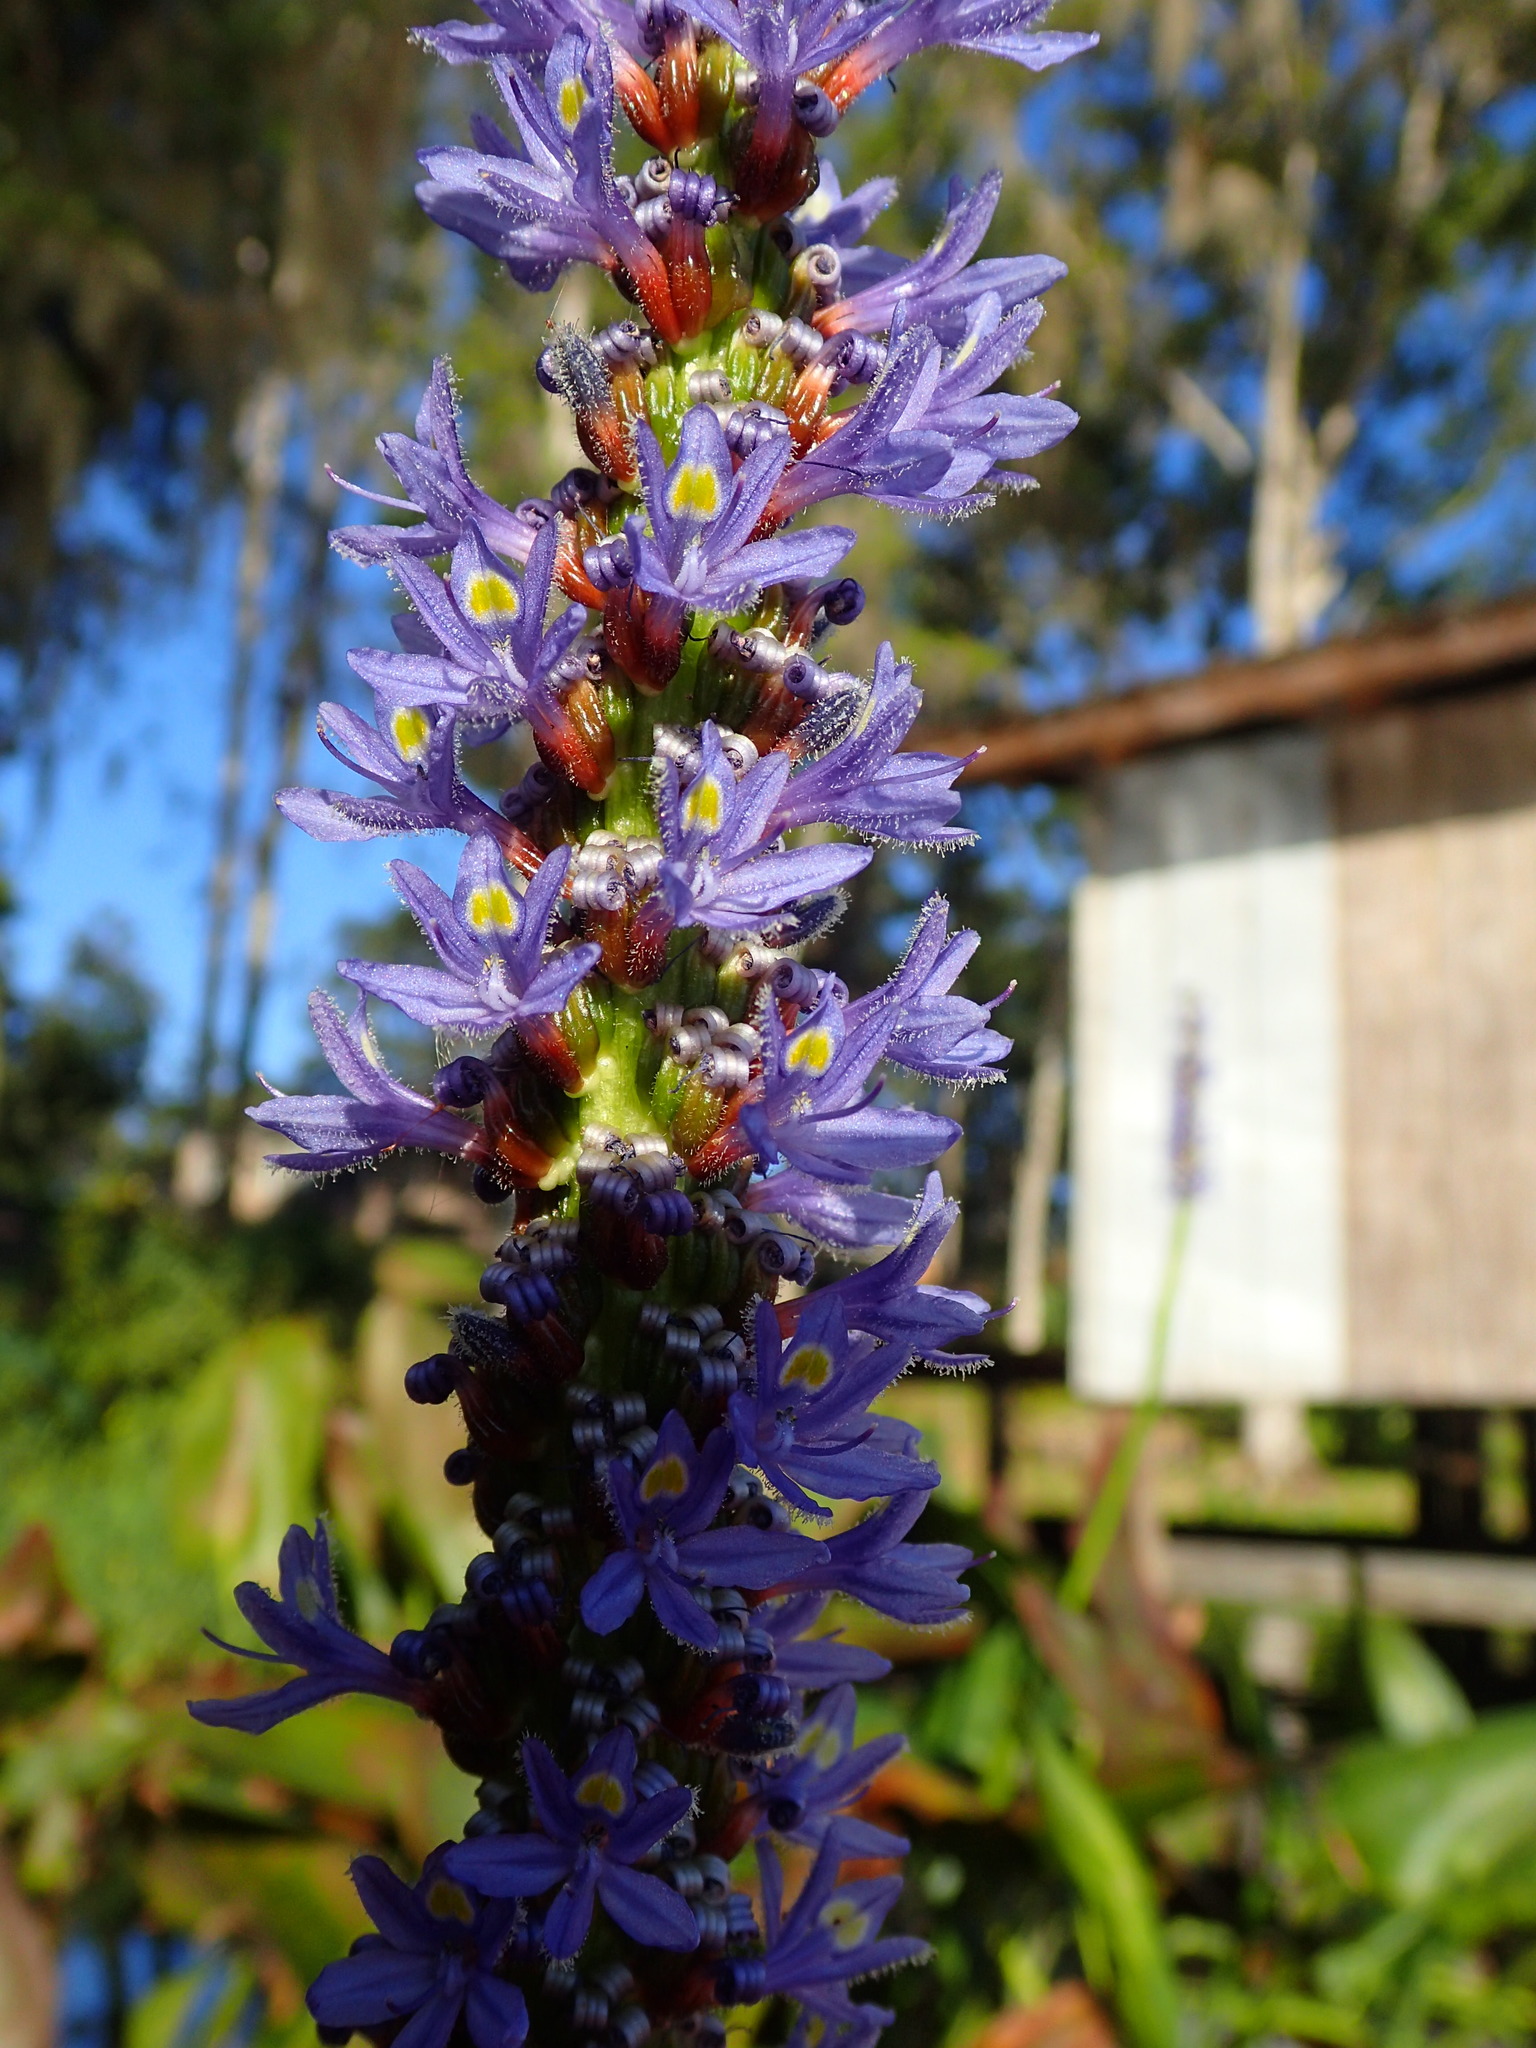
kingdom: Plantae
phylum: Tracheophyta
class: Liliopsida
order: Commelinales
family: Pontederiaceae
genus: Pontederia
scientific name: Pontederia cordata
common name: Pickerelweed
